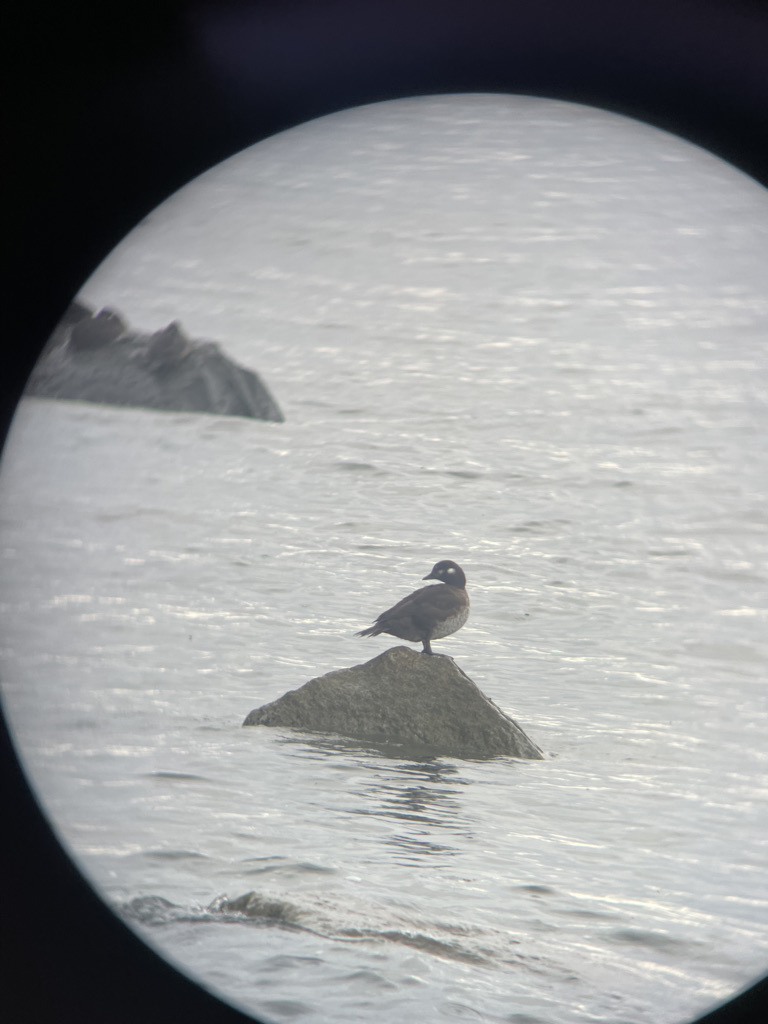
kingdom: Animalia
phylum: Chordata
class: Aves
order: Anseriformes
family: Anatidae
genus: Histrionicus
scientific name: Histrionicus histrionicus
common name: Harlequin duck
